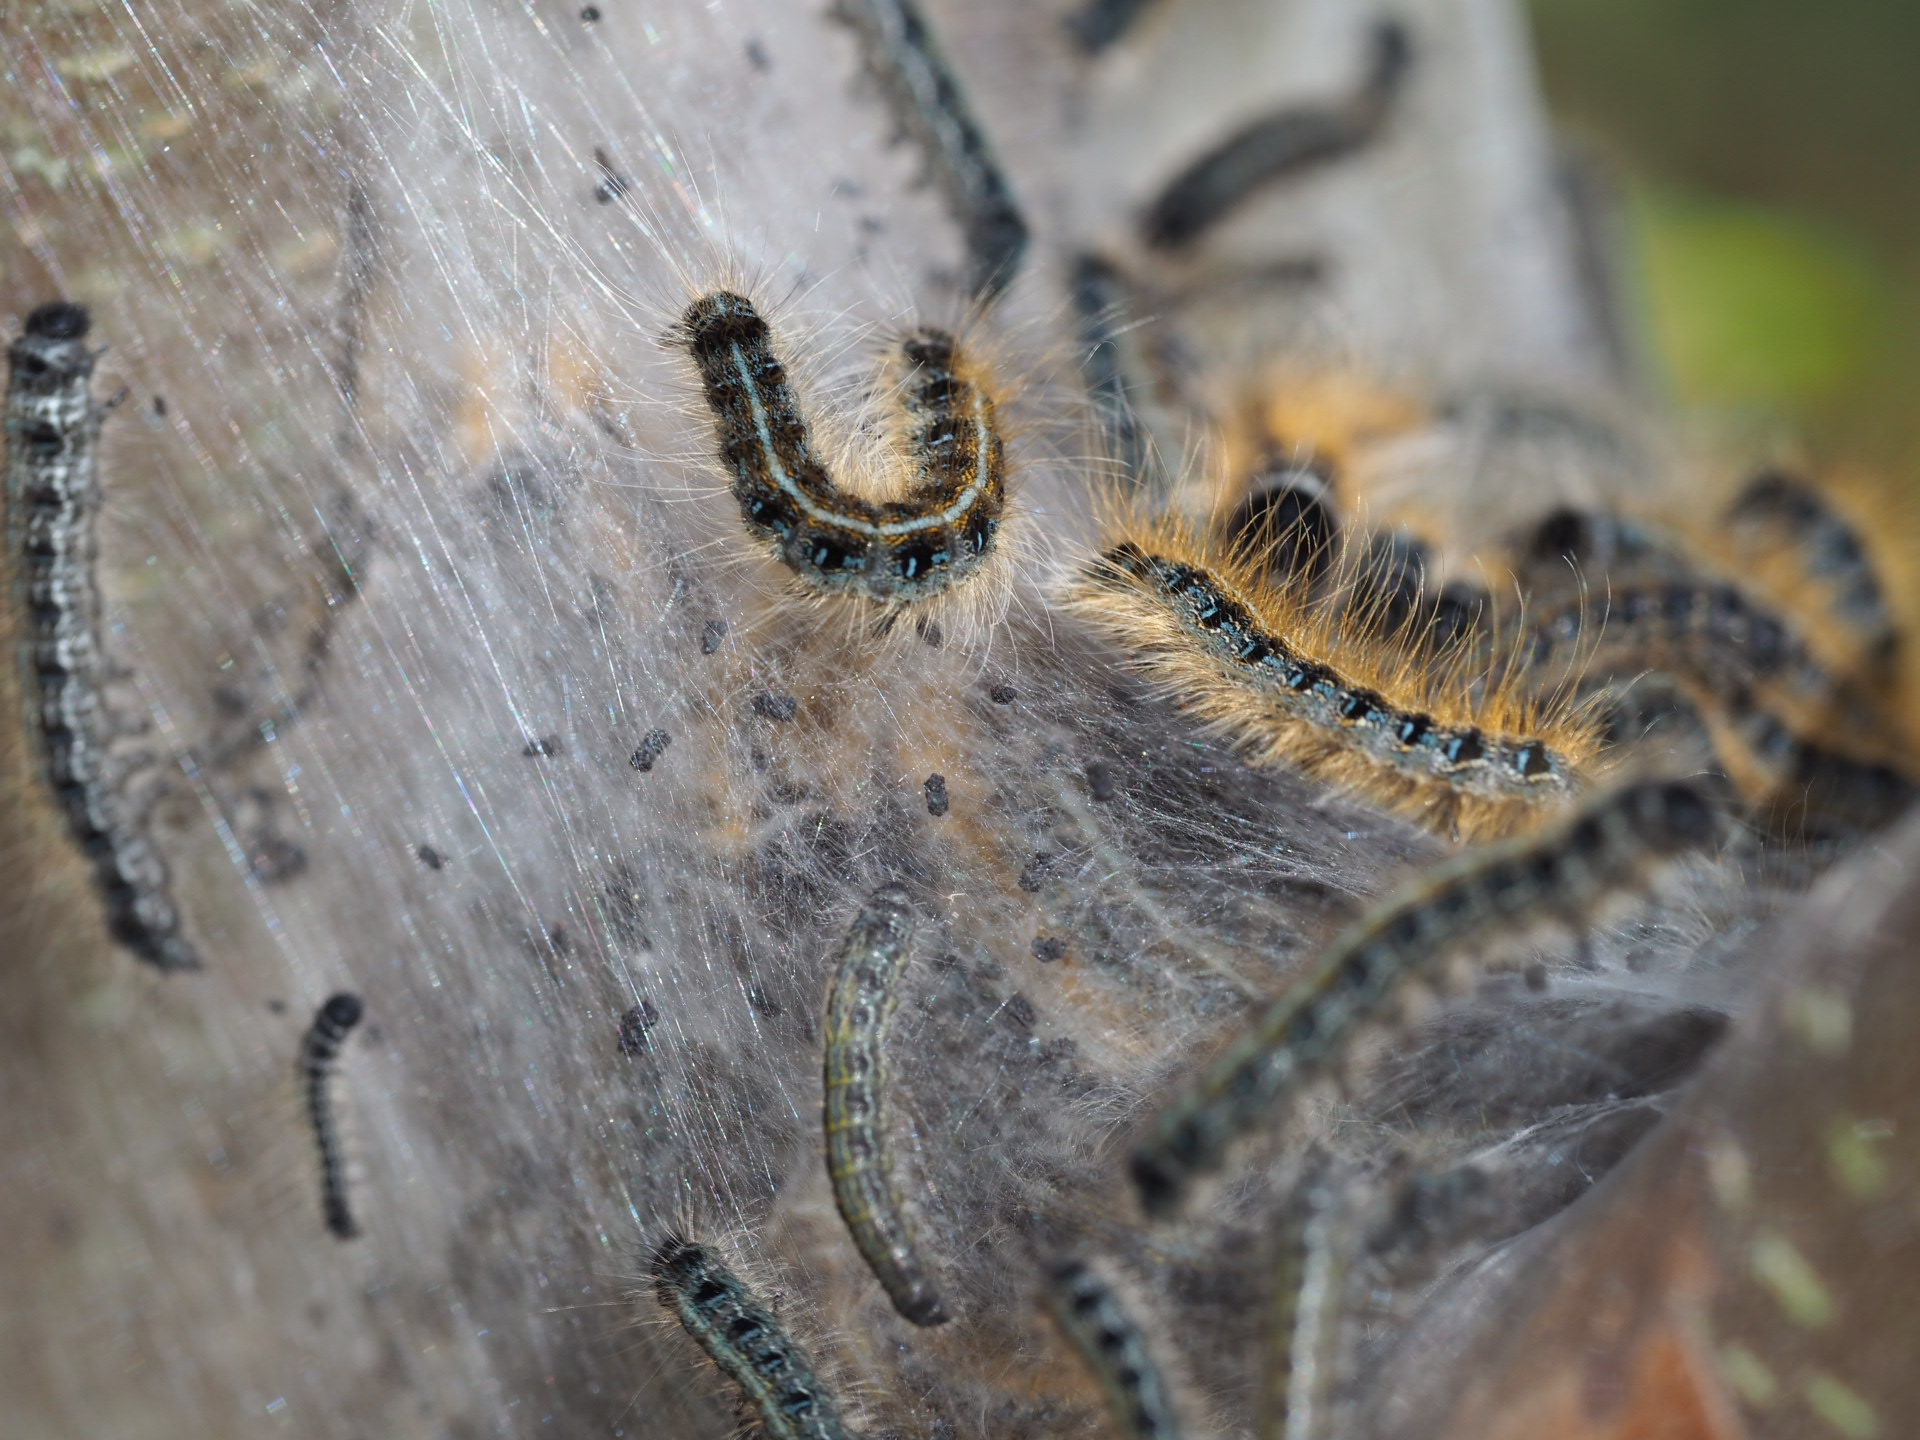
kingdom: Animalia
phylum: Arthropoda
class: Insecta
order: Lepidoptera
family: Lasiocampidae
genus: Malacosoma
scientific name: Malacosoma americana
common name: Eastern tent caterpillar moth
